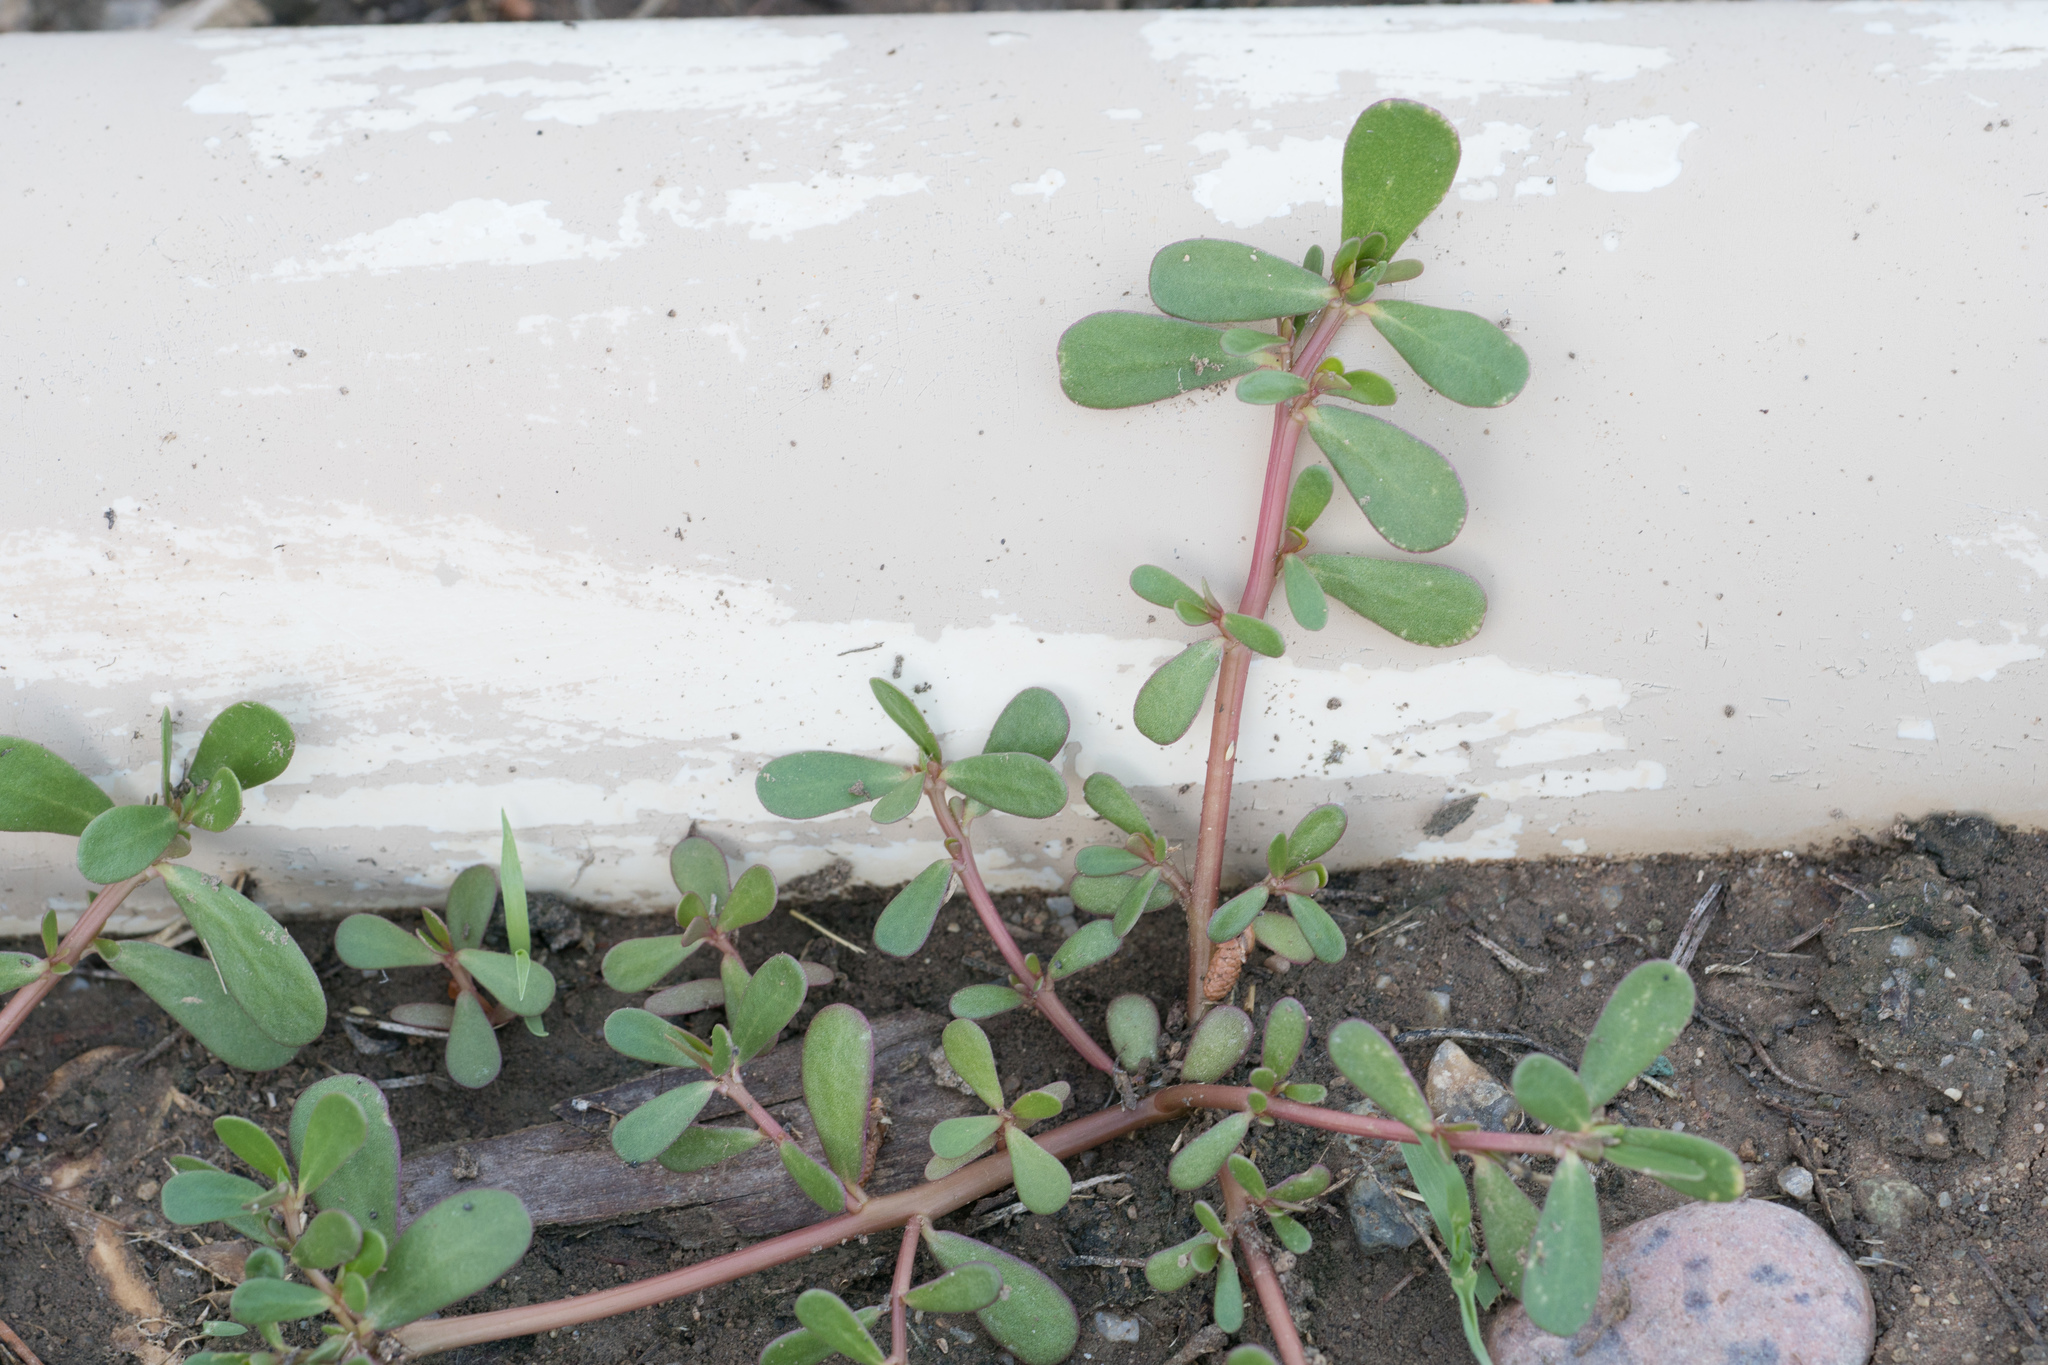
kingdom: Plantae
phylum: Tracheophyta
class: Magnoliopsida
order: Caryophyllales
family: Portulacaceae
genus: Portulaca
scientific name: Portulaca oleracea
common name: Common purslane
